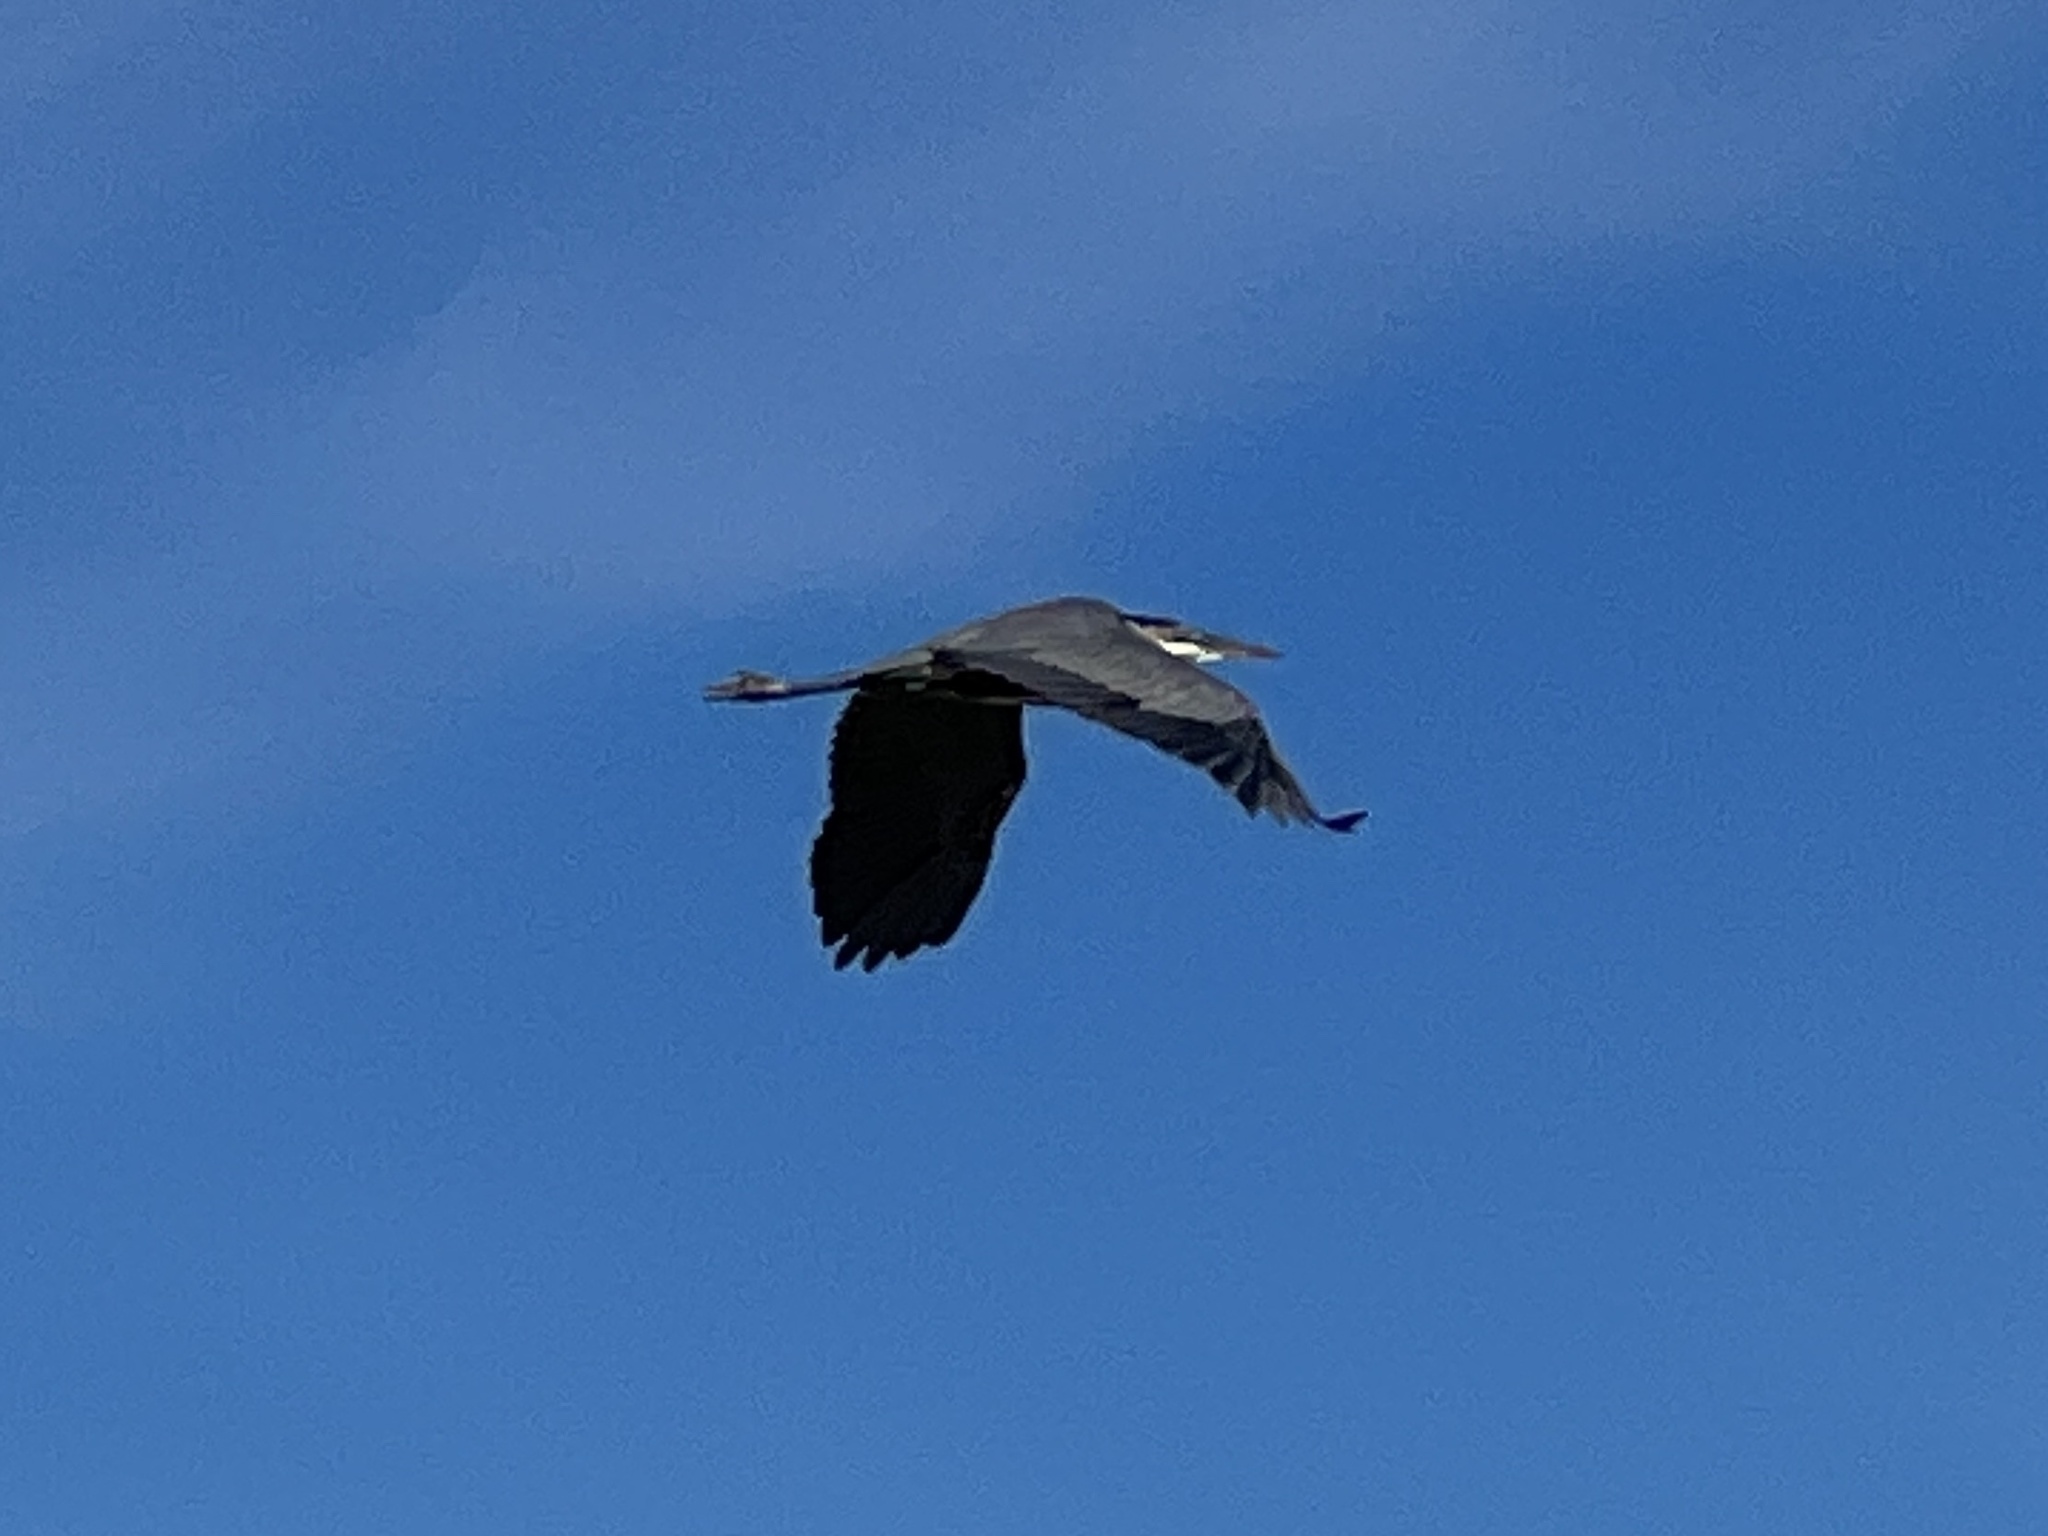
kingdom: Animalia
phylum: Chordata
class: Aves
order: Pelecaniformes
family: Ardeidae
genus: Ardea
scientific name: Ardea herodias
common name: Great blue heron
